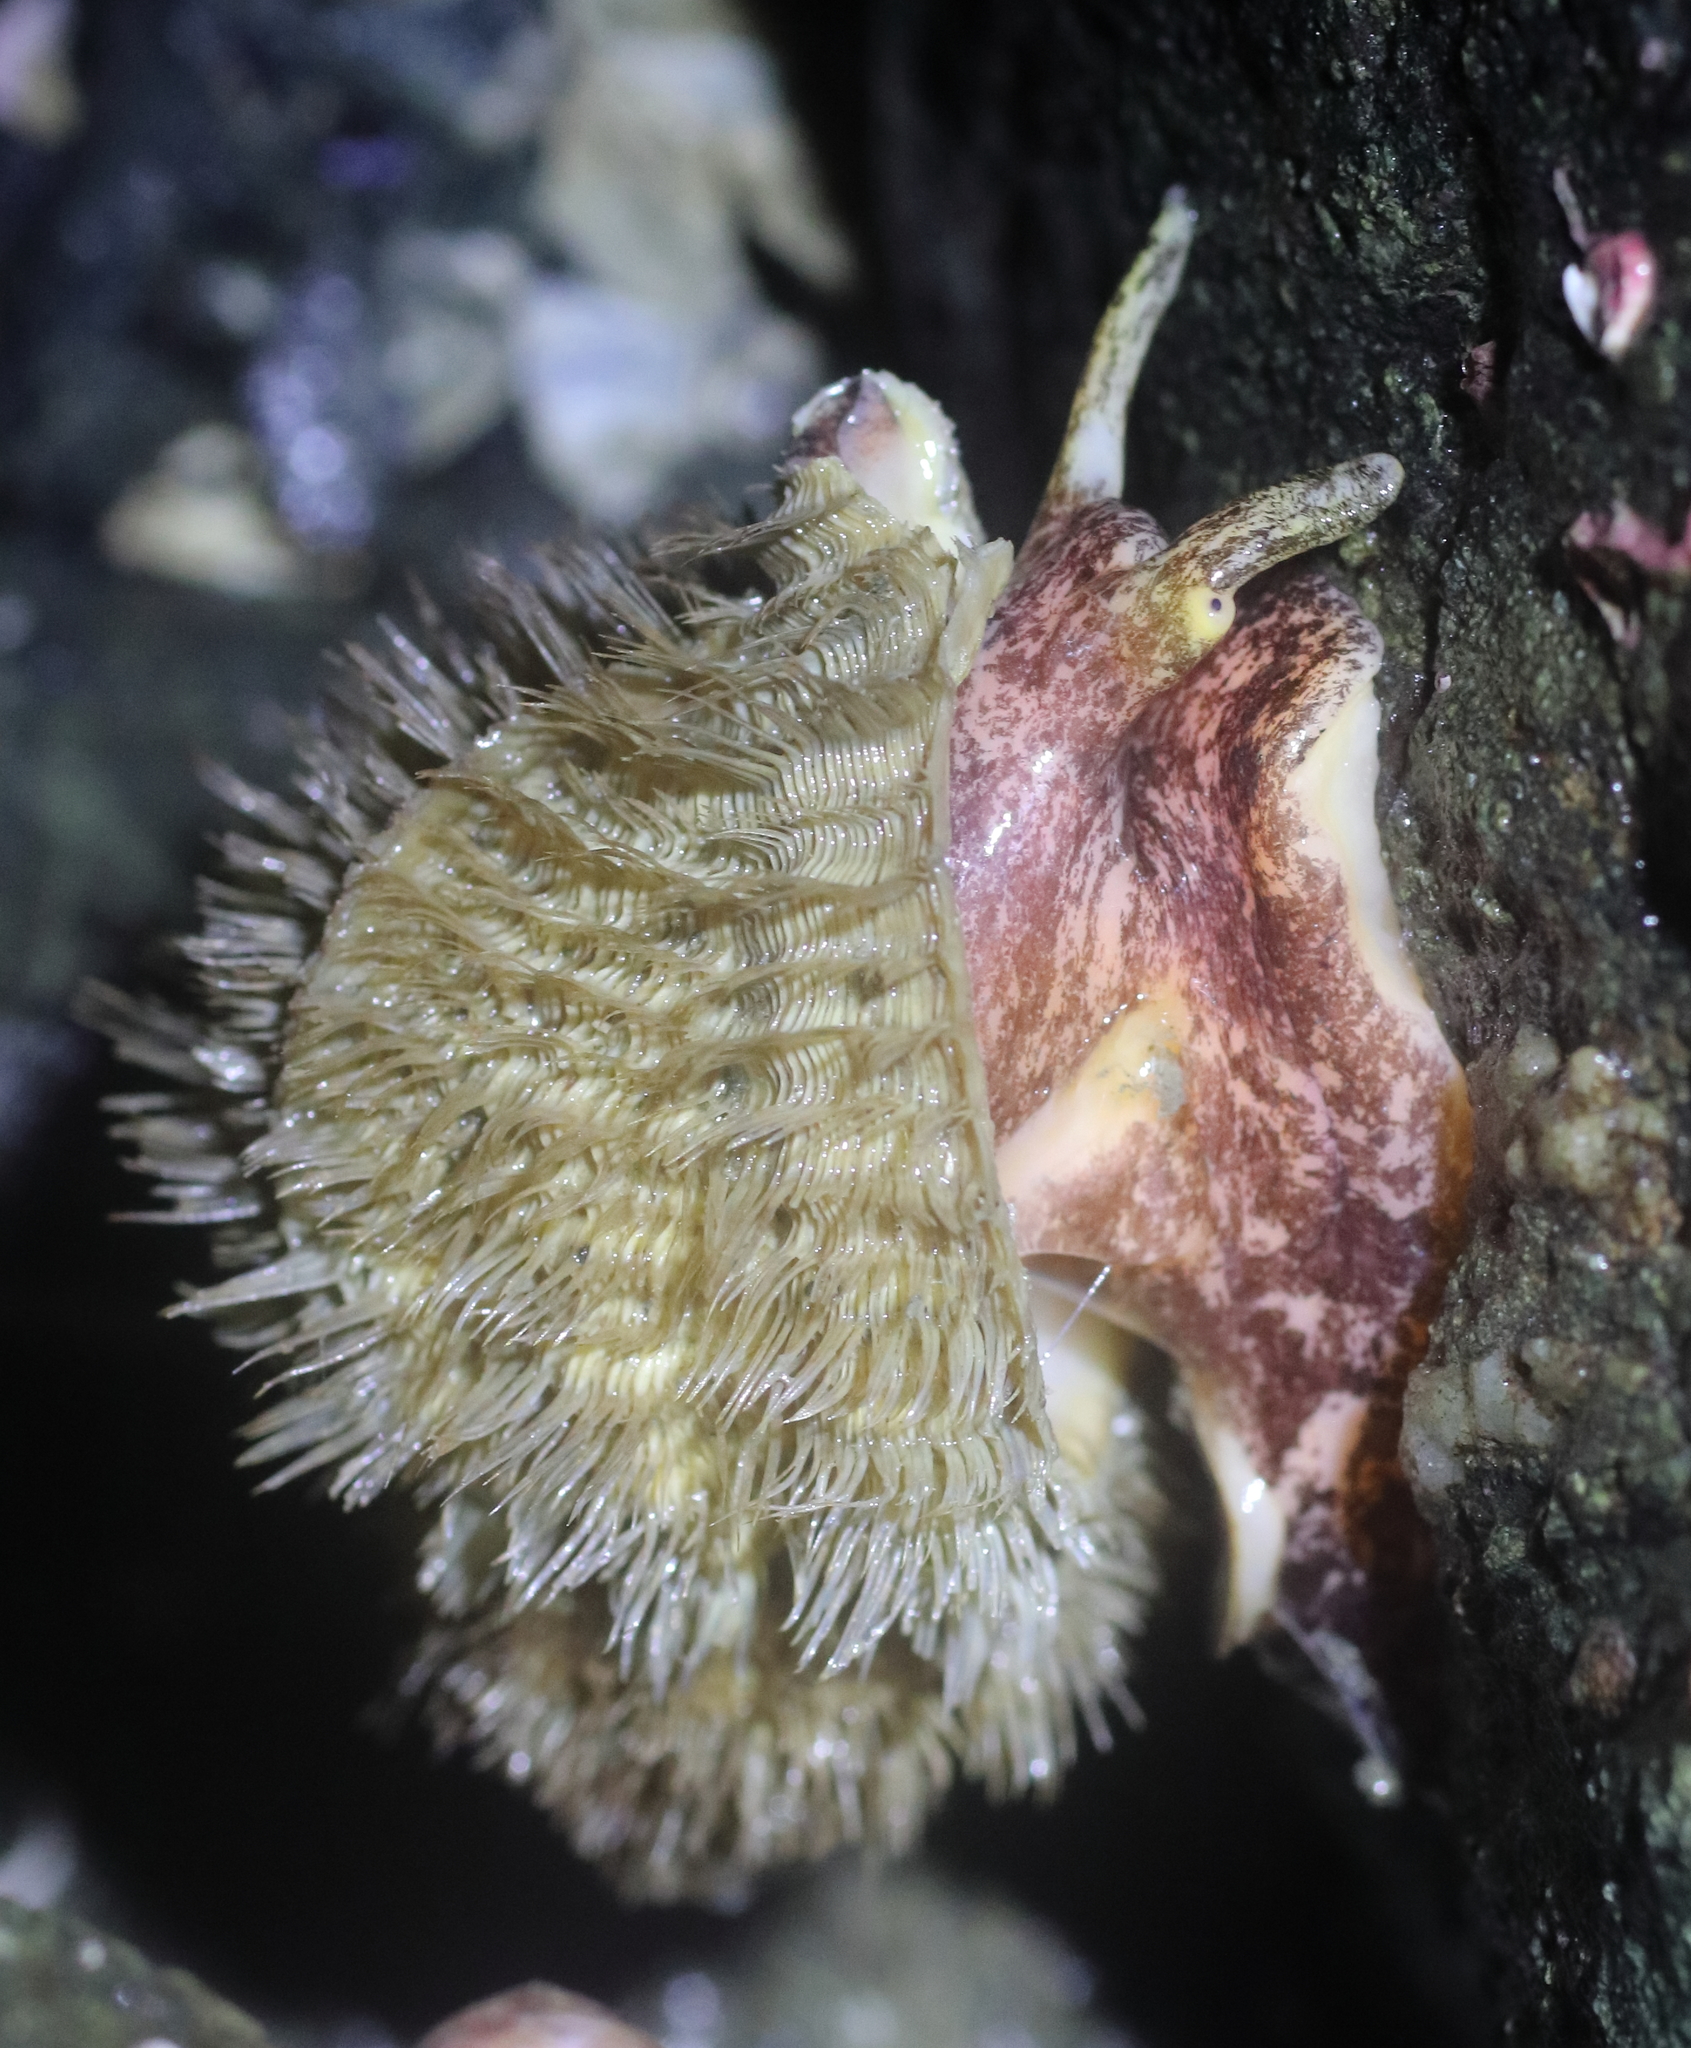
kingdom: Animalia
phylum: Mollusca
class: Gastropoda
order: Littorinimorpha
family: Cymatiidae
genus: Fusitriton
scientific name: Fusitriton oregonensis
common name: Oregon hairy triton
